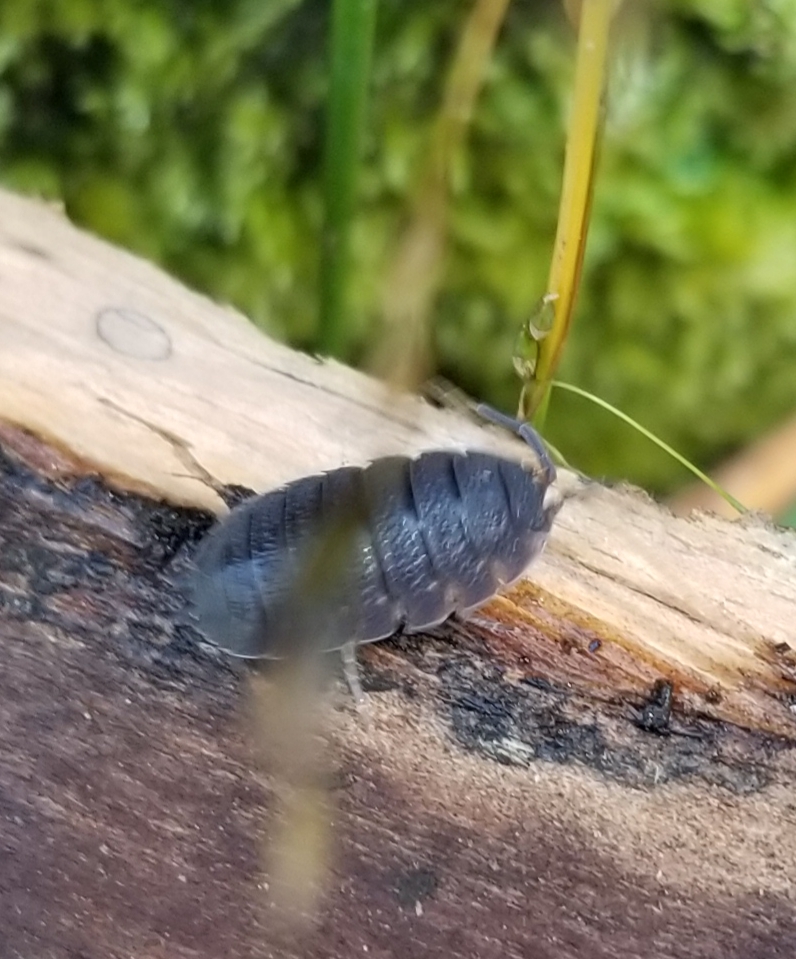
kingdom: Animalia
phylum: Arthropoda
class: Malacostraca
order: Isopoda
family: Porcellionidae
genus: Porcellio
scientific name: Porcellio scaber
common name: Common rough woodlouse
